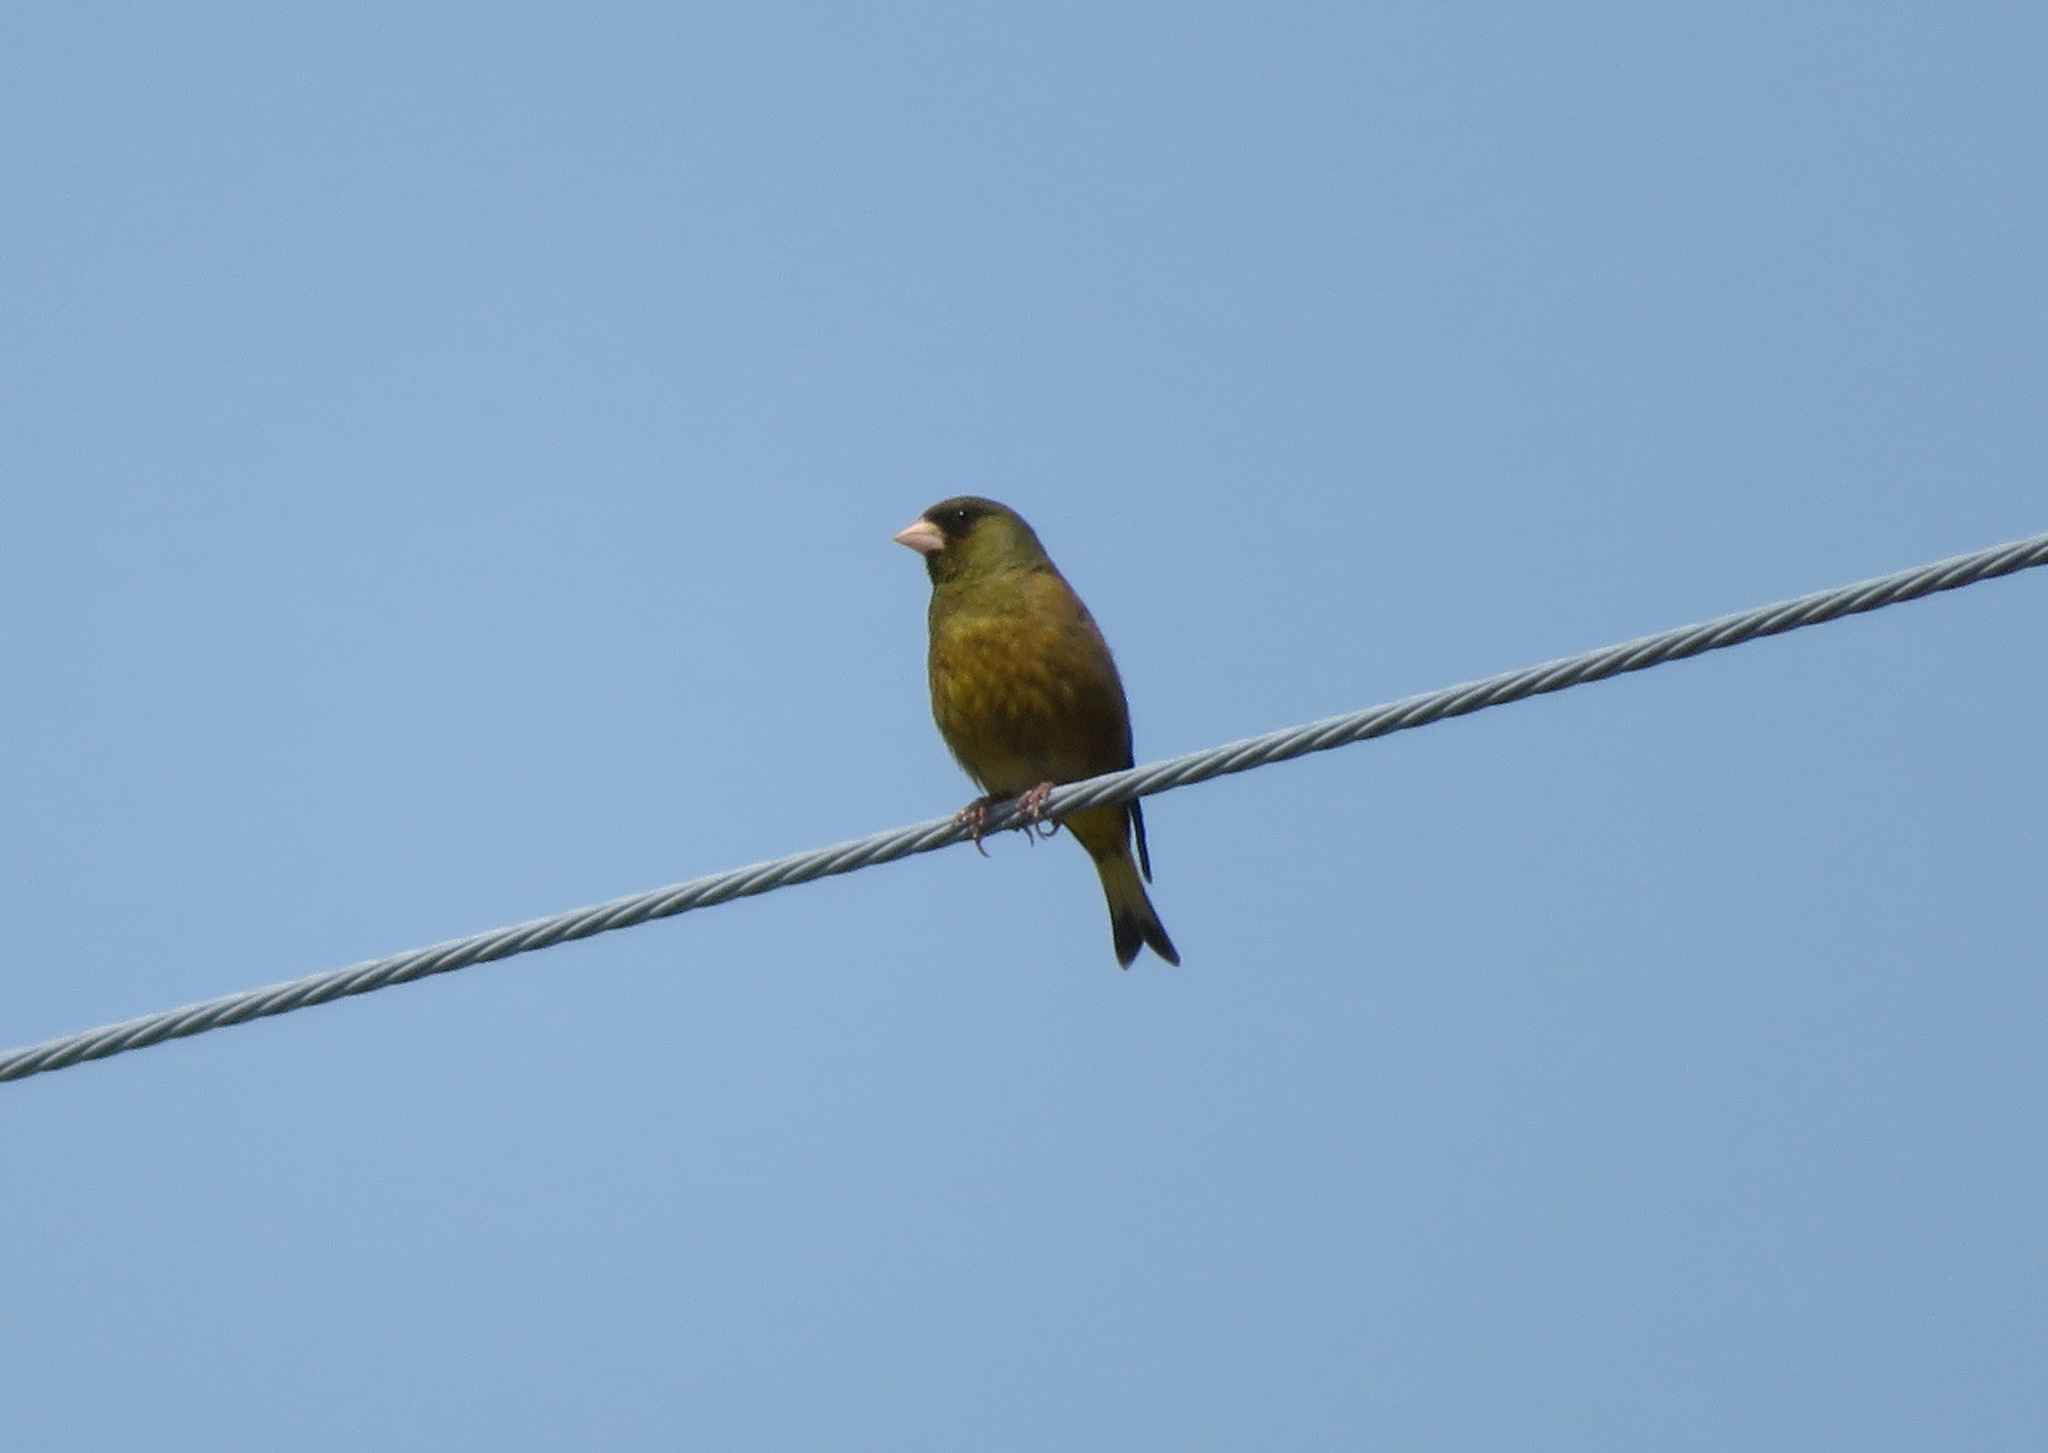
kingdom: Plantae
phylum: Tracheophyta
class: Liliopsida
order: Poales
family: Poaceae
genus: Chloris
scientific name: Chloris sinica
